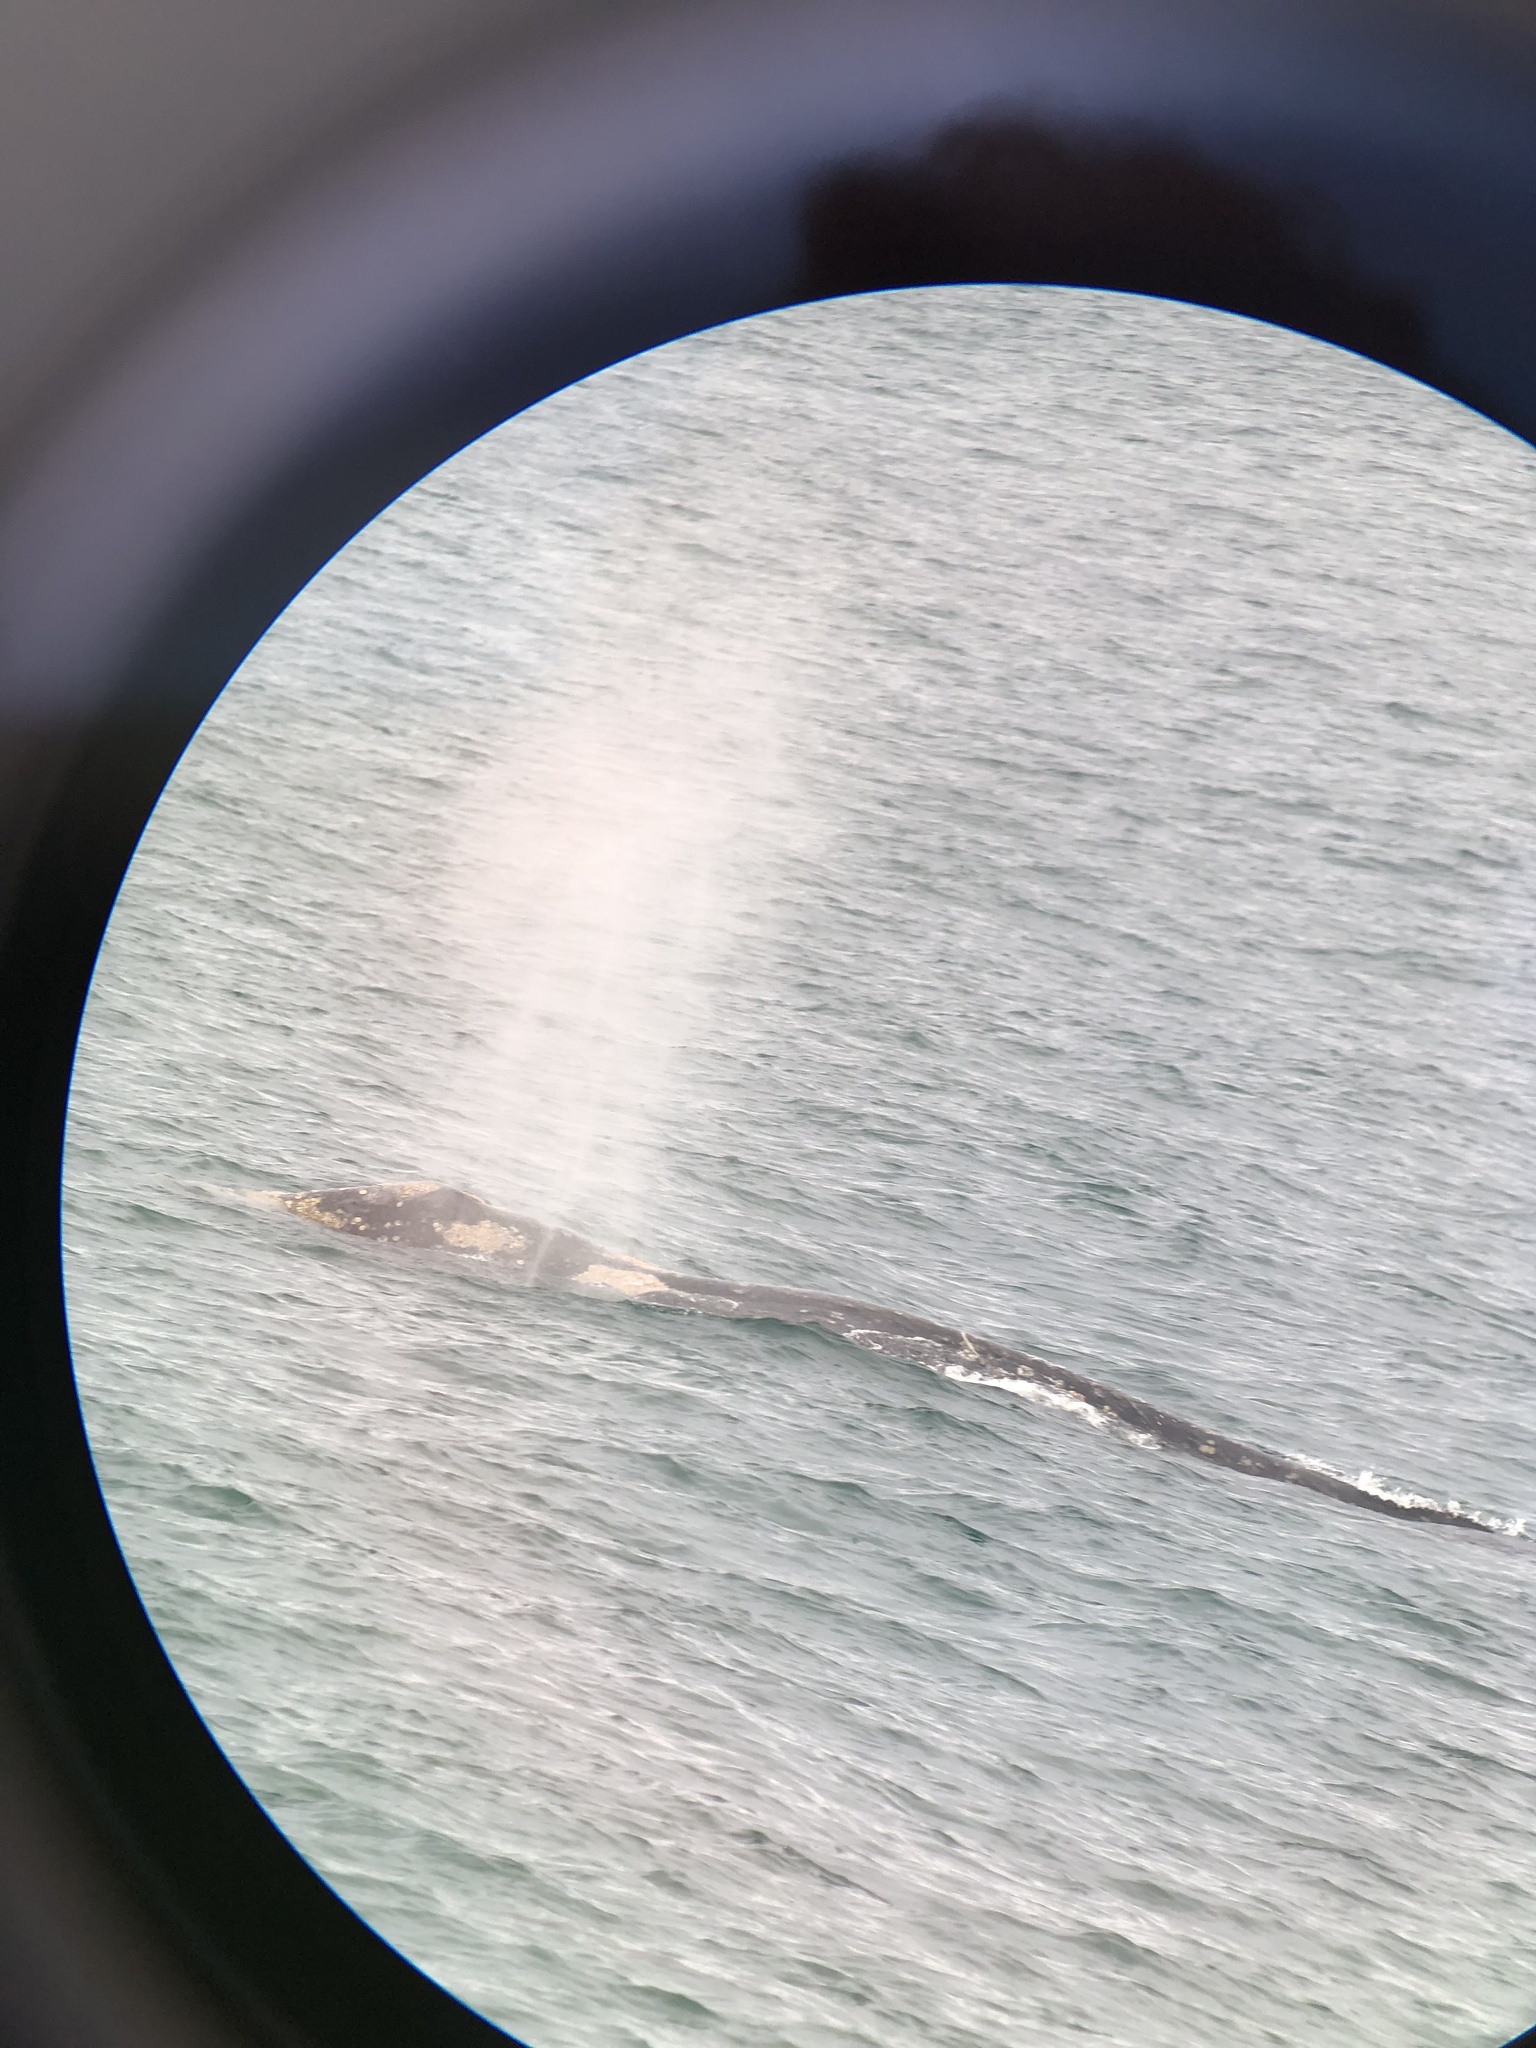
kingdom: Animalia
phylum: Chordata
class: Mammalia
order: Cetacea
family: Eschrichtiidae
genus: Eschrichtius
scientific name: Eschrichtius robustus
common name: Gray whale
